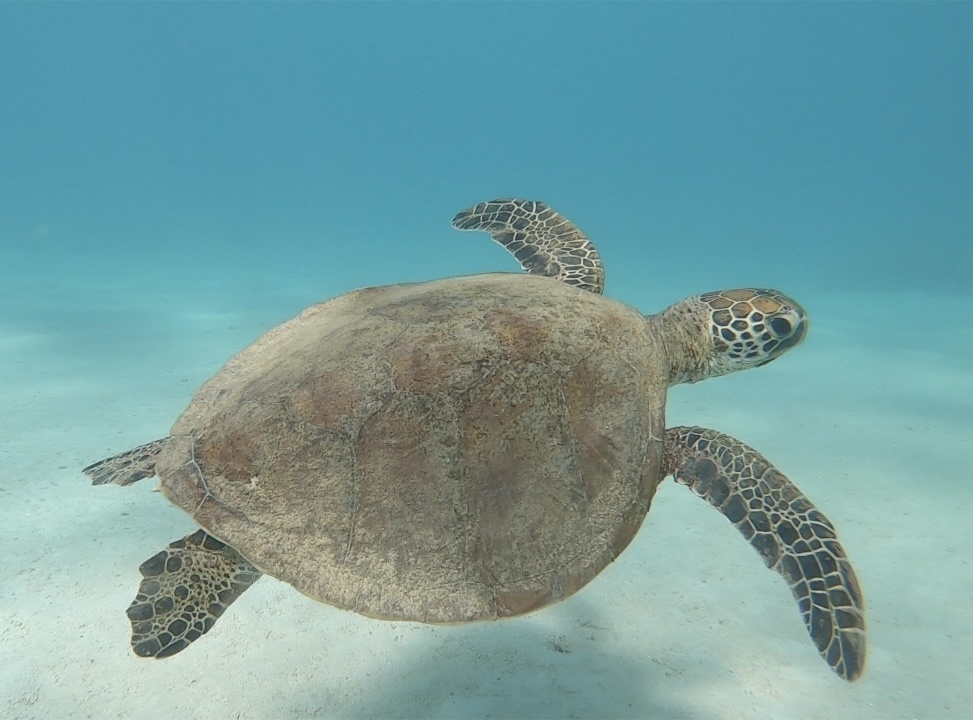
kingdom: Animalia
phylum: Chordata
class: Testudines
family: Cheloniidae
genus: Chelonia
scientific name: Chelonia mydas
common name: Green turtle
